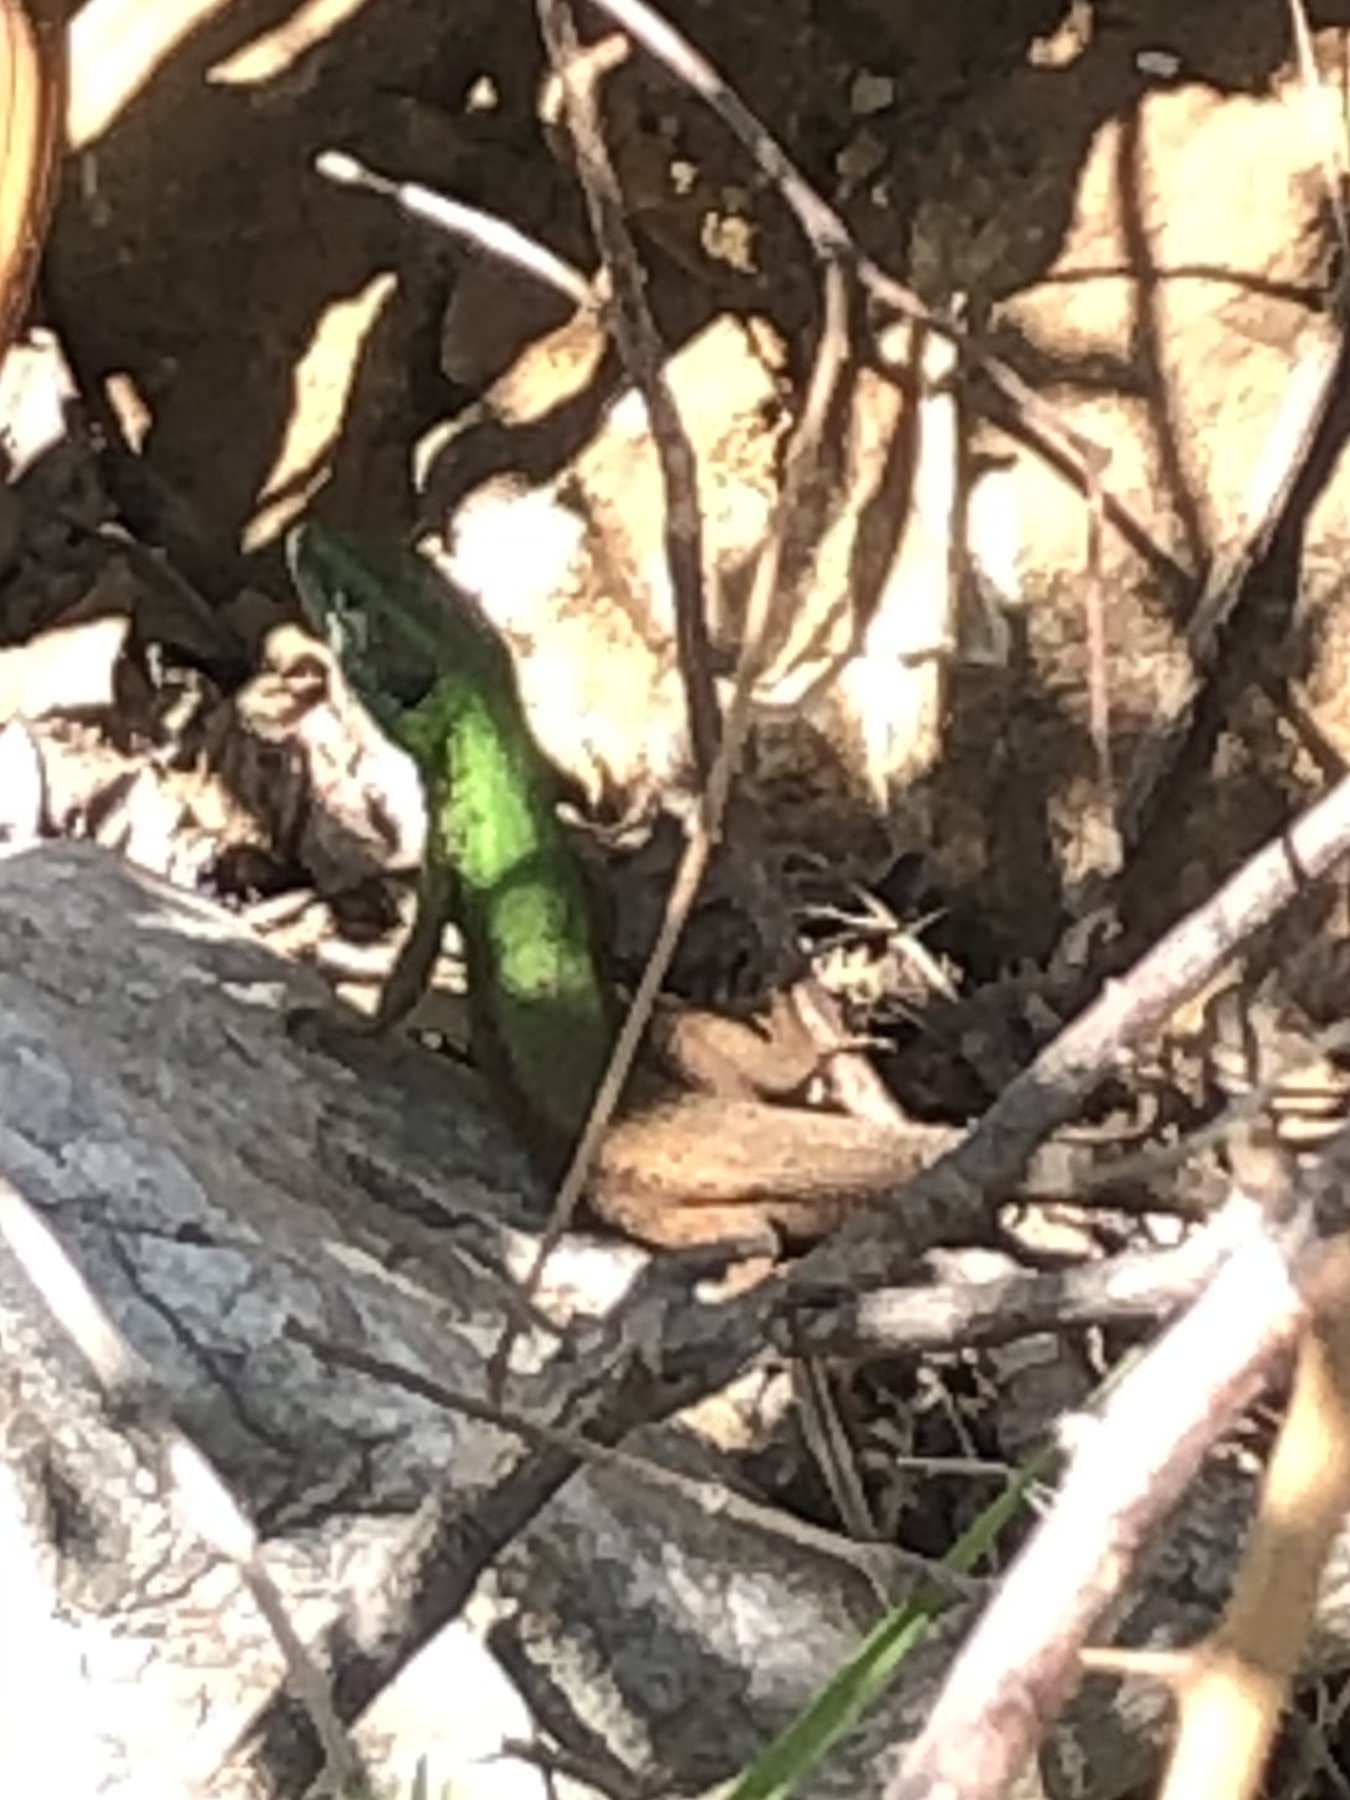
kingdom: Animalia
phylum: Chordata
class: Squamata
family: Lacertidae
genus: Lacerta
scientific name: Lacerta viridis
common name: European green lizard
